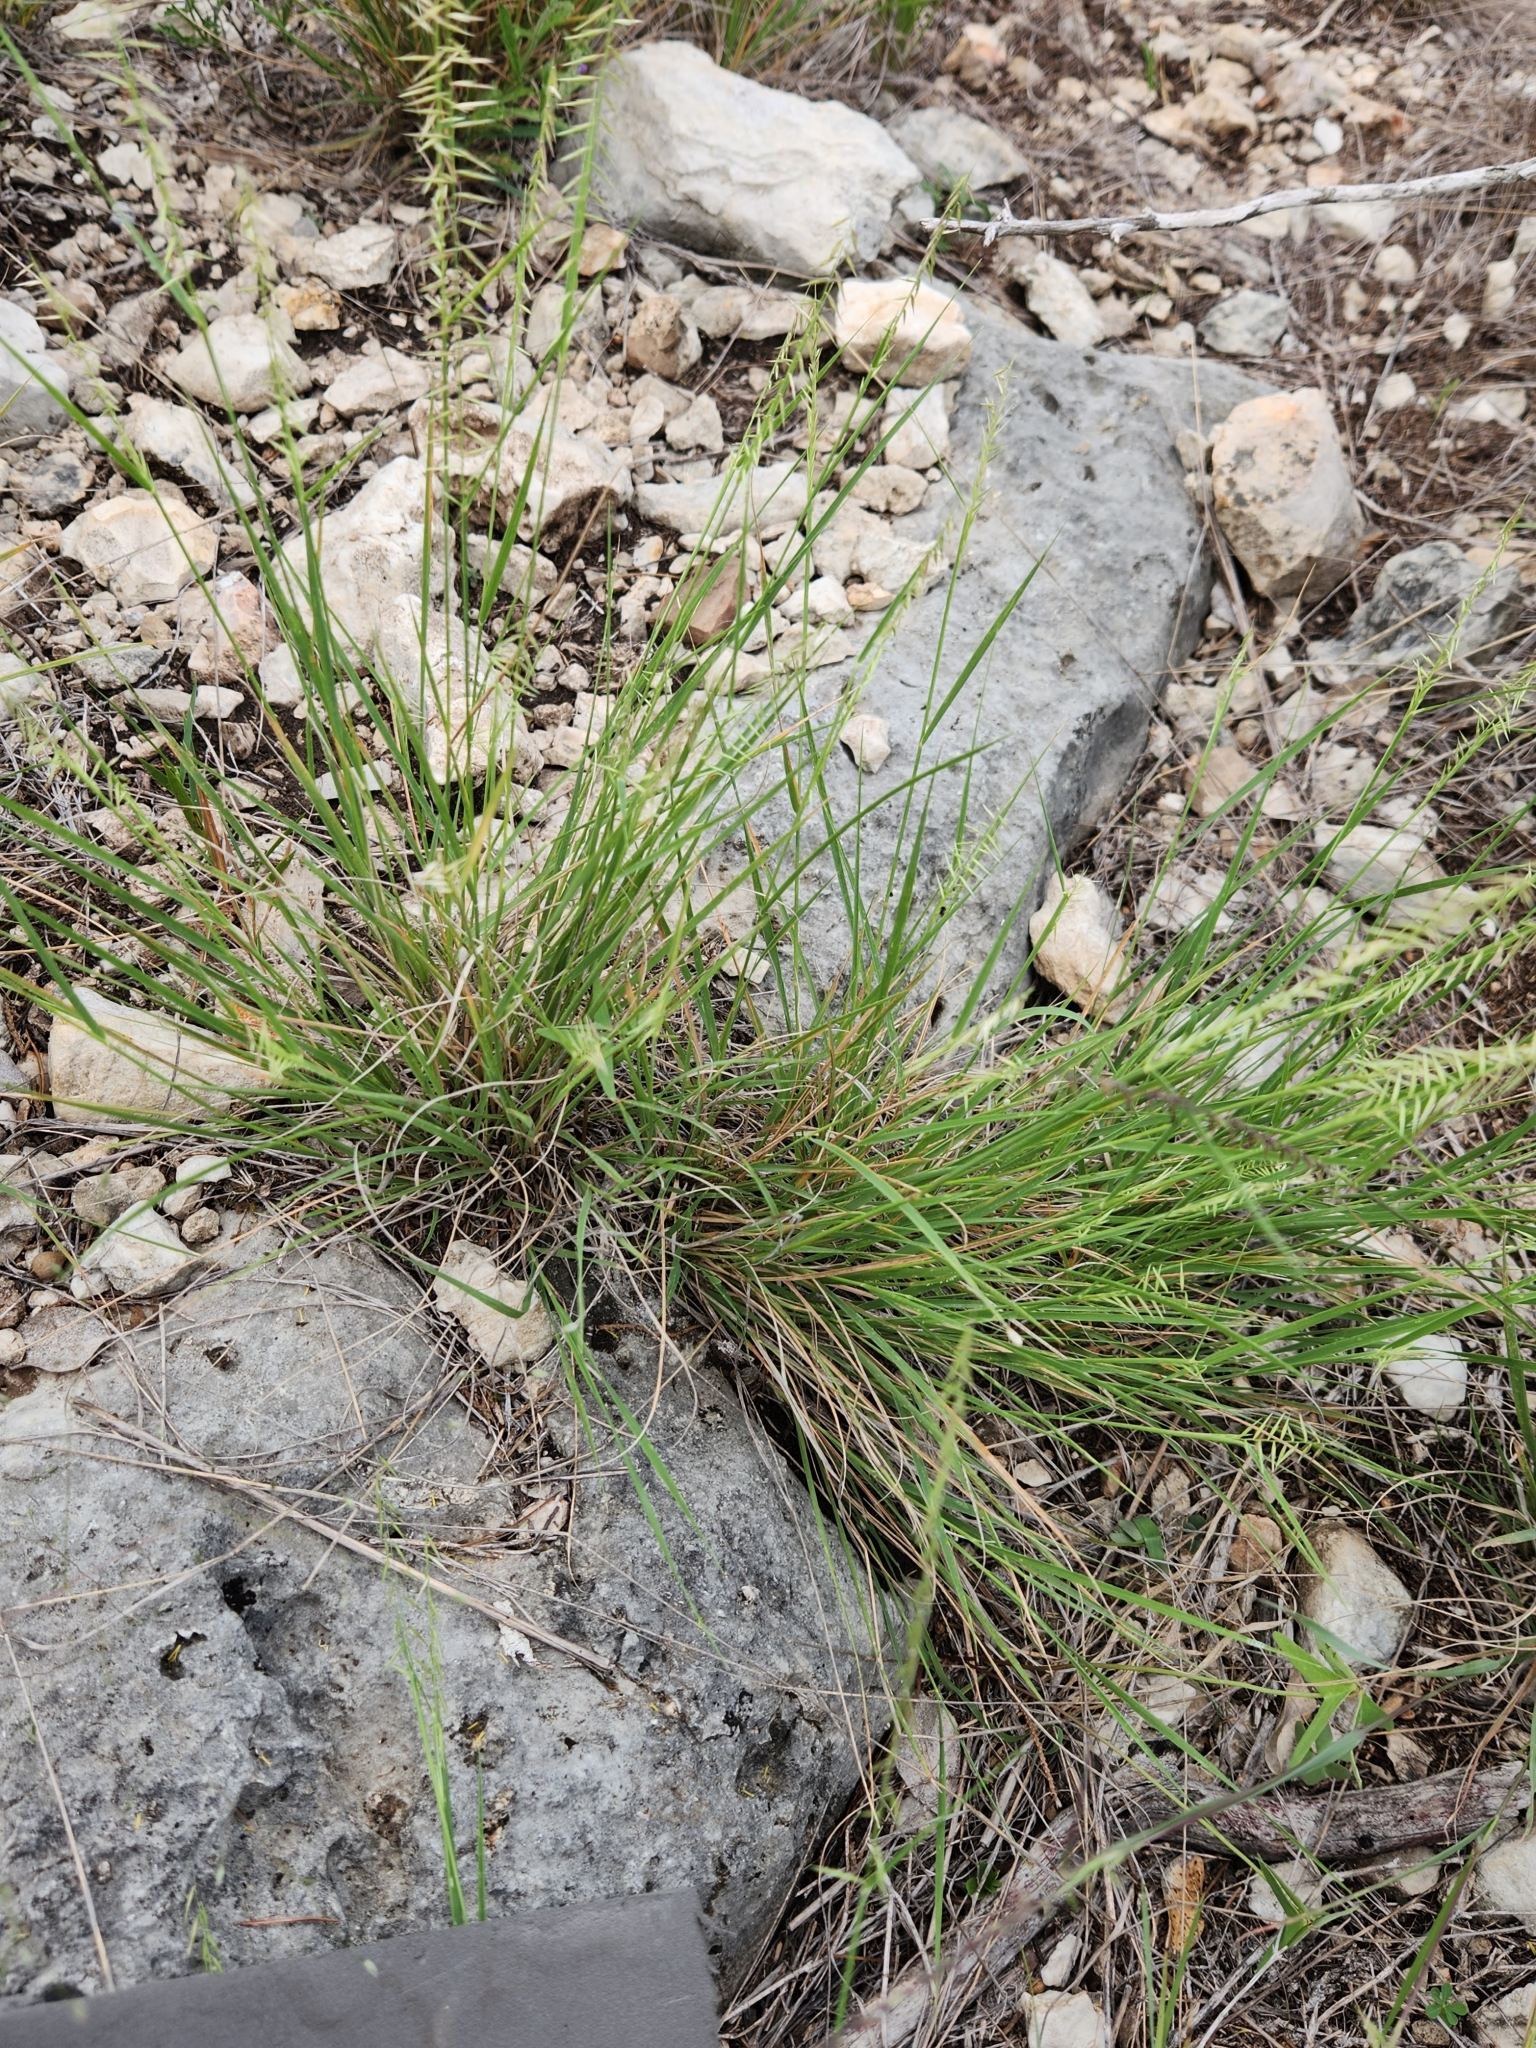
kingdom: Plantae
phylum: Tracheophyta
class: Liliopsida
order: Poales
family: Poaceae
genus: Bouteloua
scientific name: Bouteloua uniflora
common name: Neally's grama
